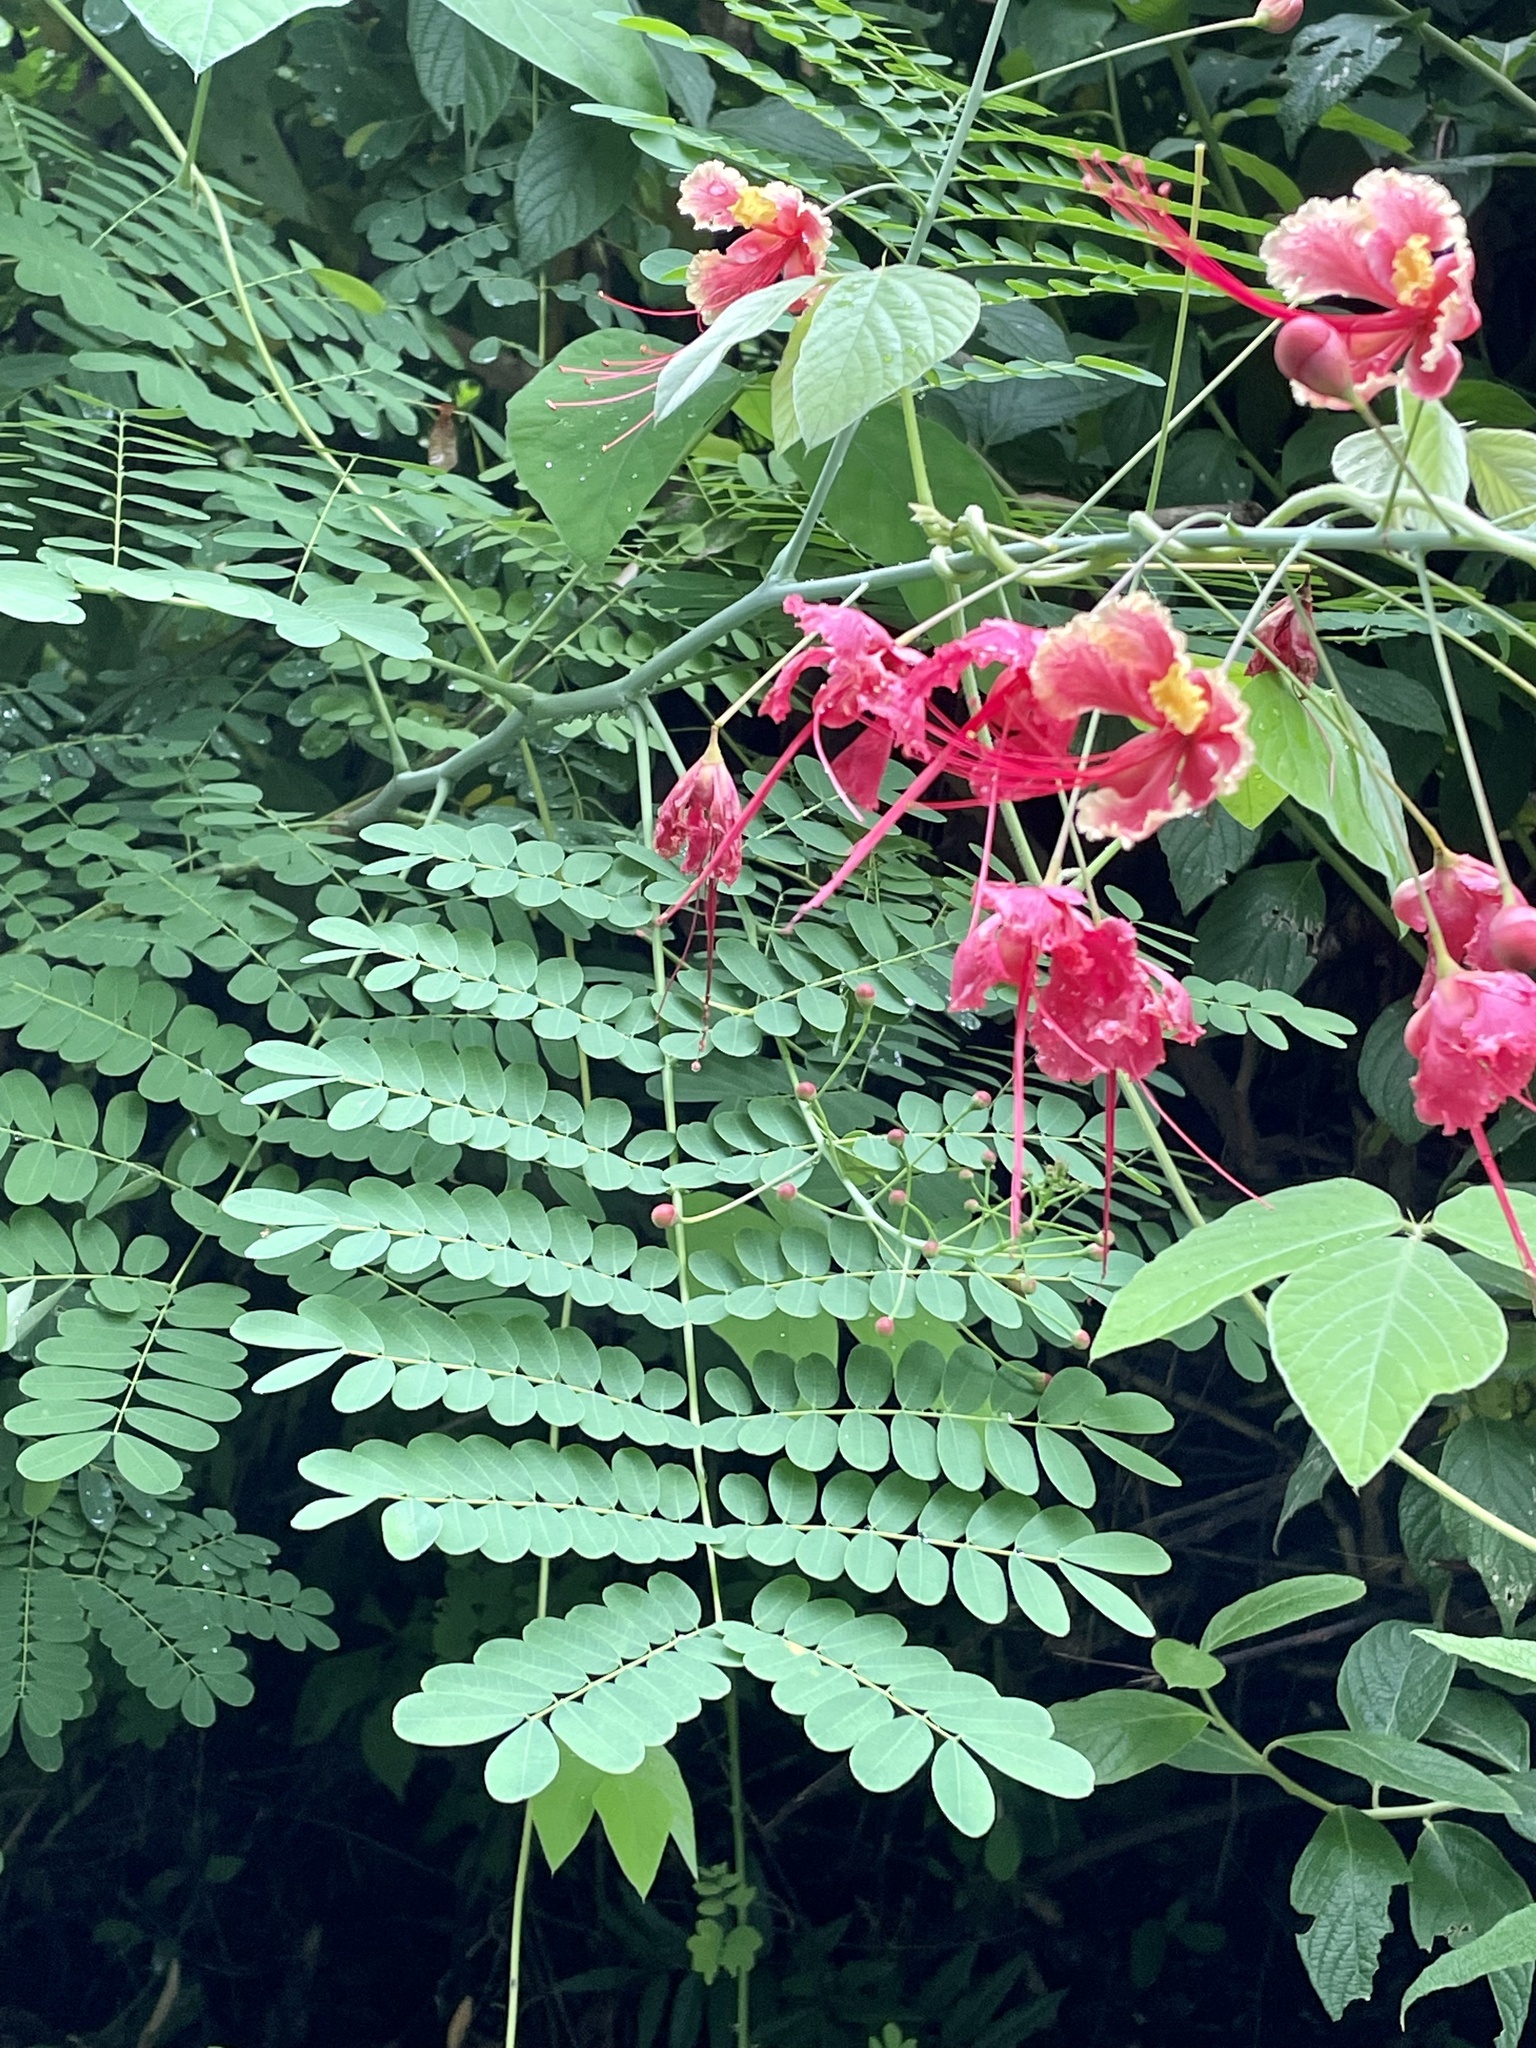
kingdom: Plantae
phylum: Tracheophyta
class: Magnoliopsida
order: Fabales
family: Fabaceae
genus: Caesalpinia
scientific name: Caesalpinia pulcherrima
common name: Pride-of-barbados
